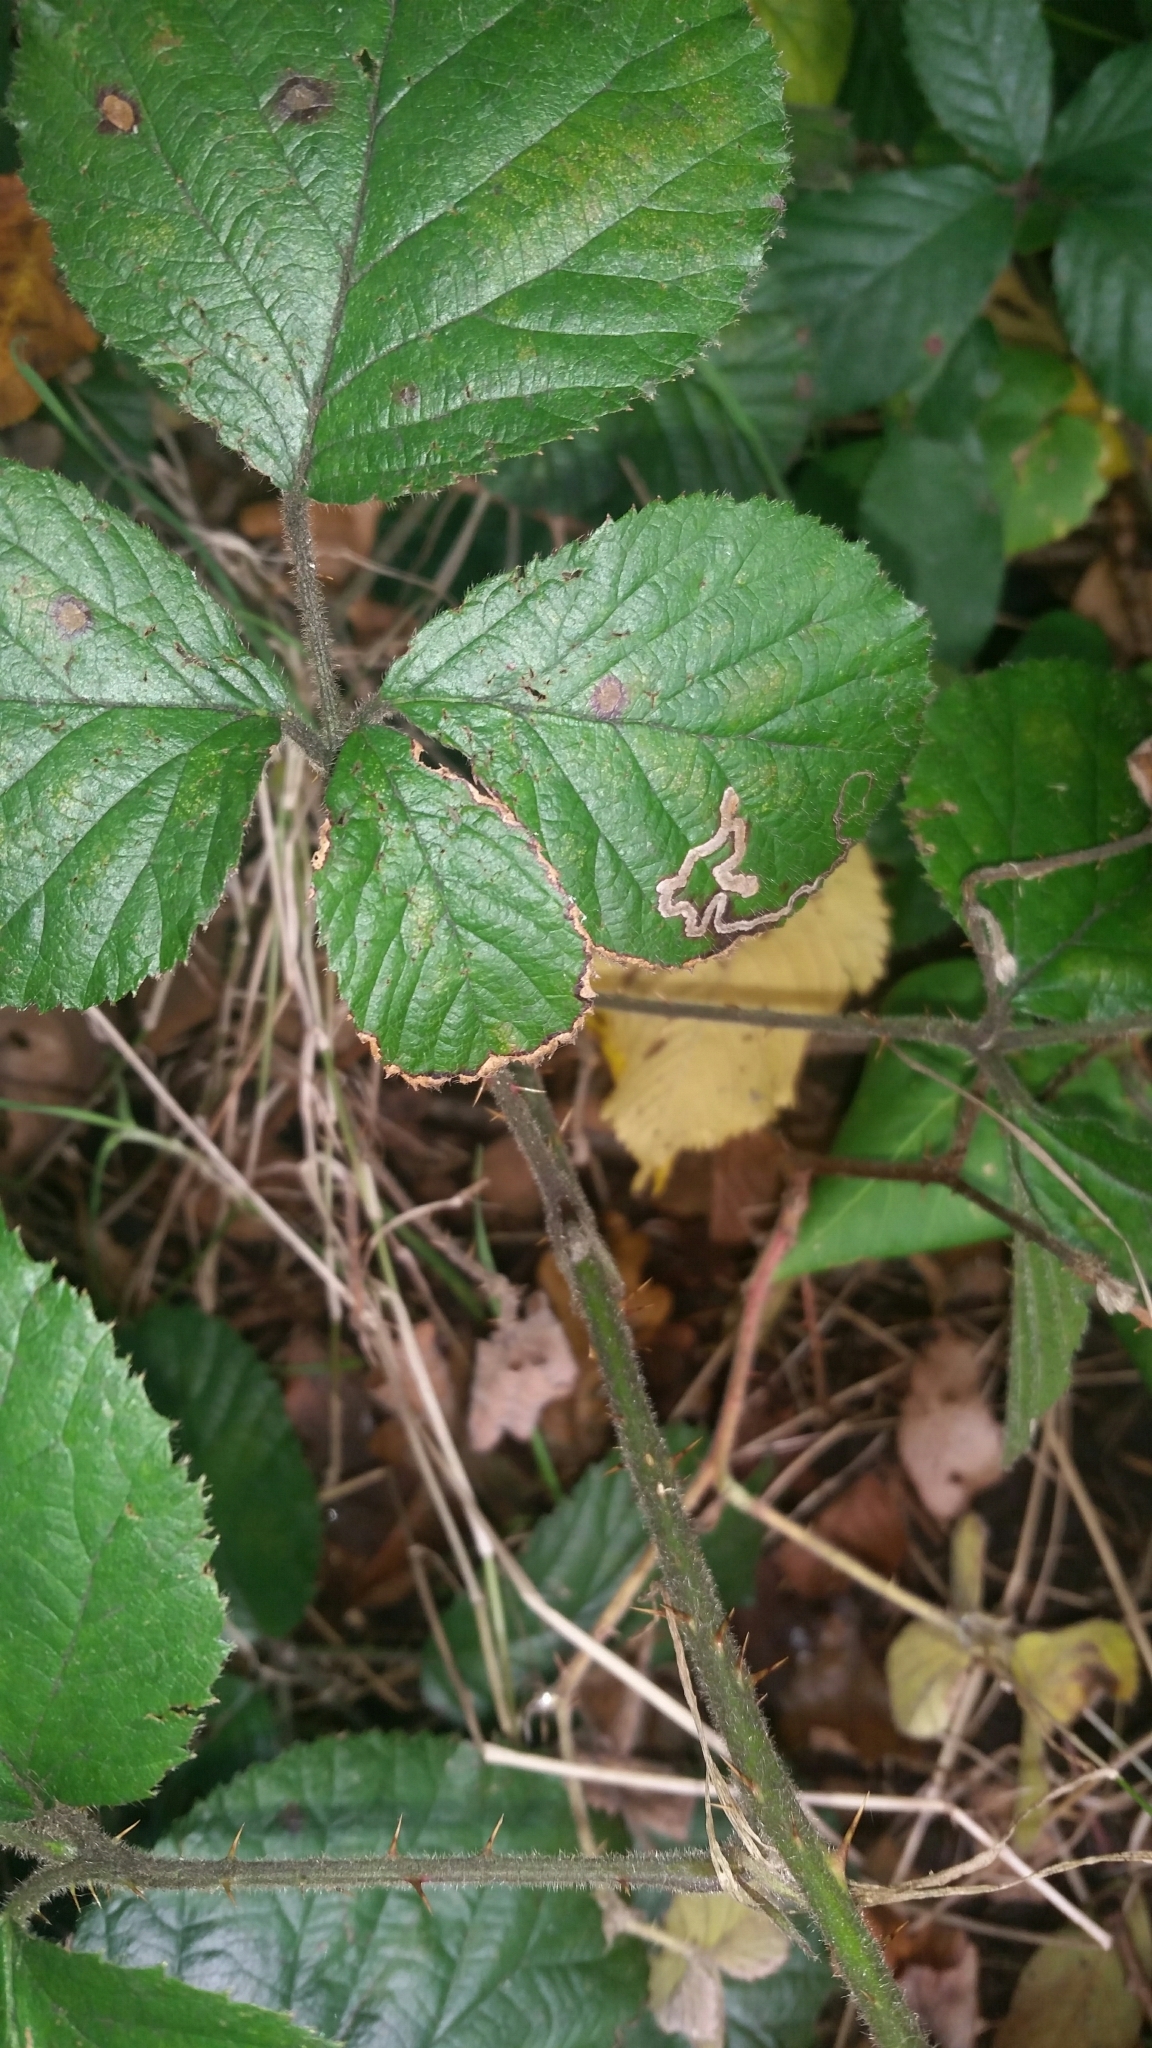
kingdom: Animalia
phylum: Arthropoda
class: Insecta
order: Lepidoptera
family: Nepticulidae
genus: Stigmella
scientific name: Stigmella aurella
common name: Golden pigmy
